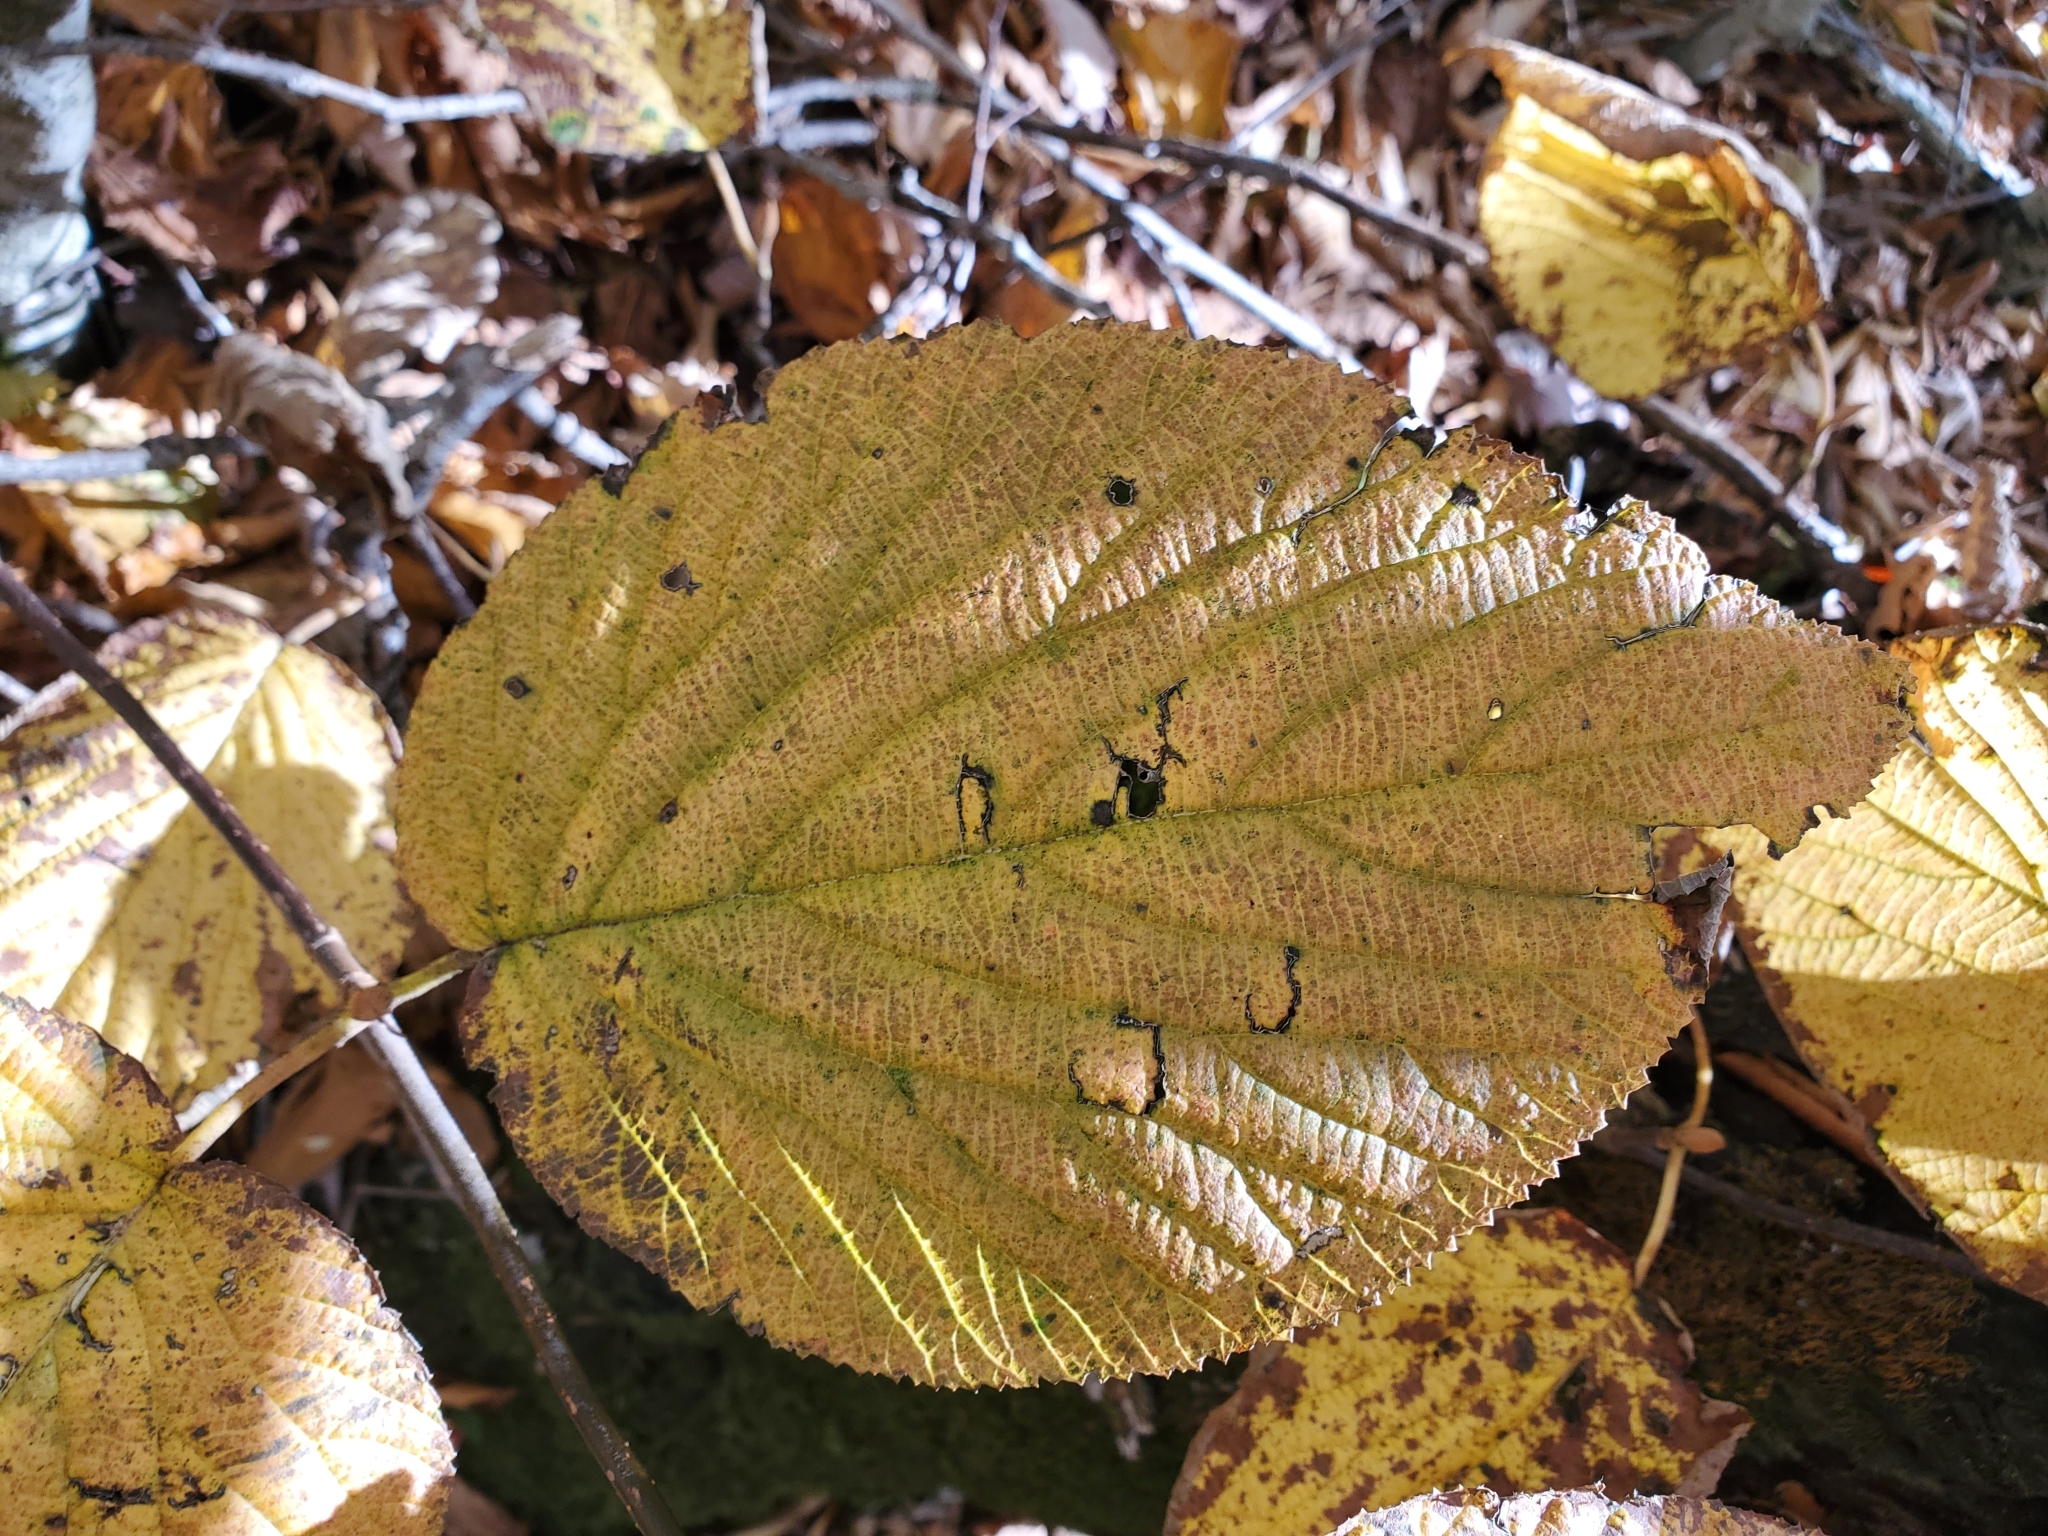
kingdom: Plantae
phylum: Tracheophyta
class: Magnoliopsida
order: Dipsacales
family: Viburnaceae
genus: Viburnum
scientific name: Viburnum lantanoides
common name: Hobblebush
